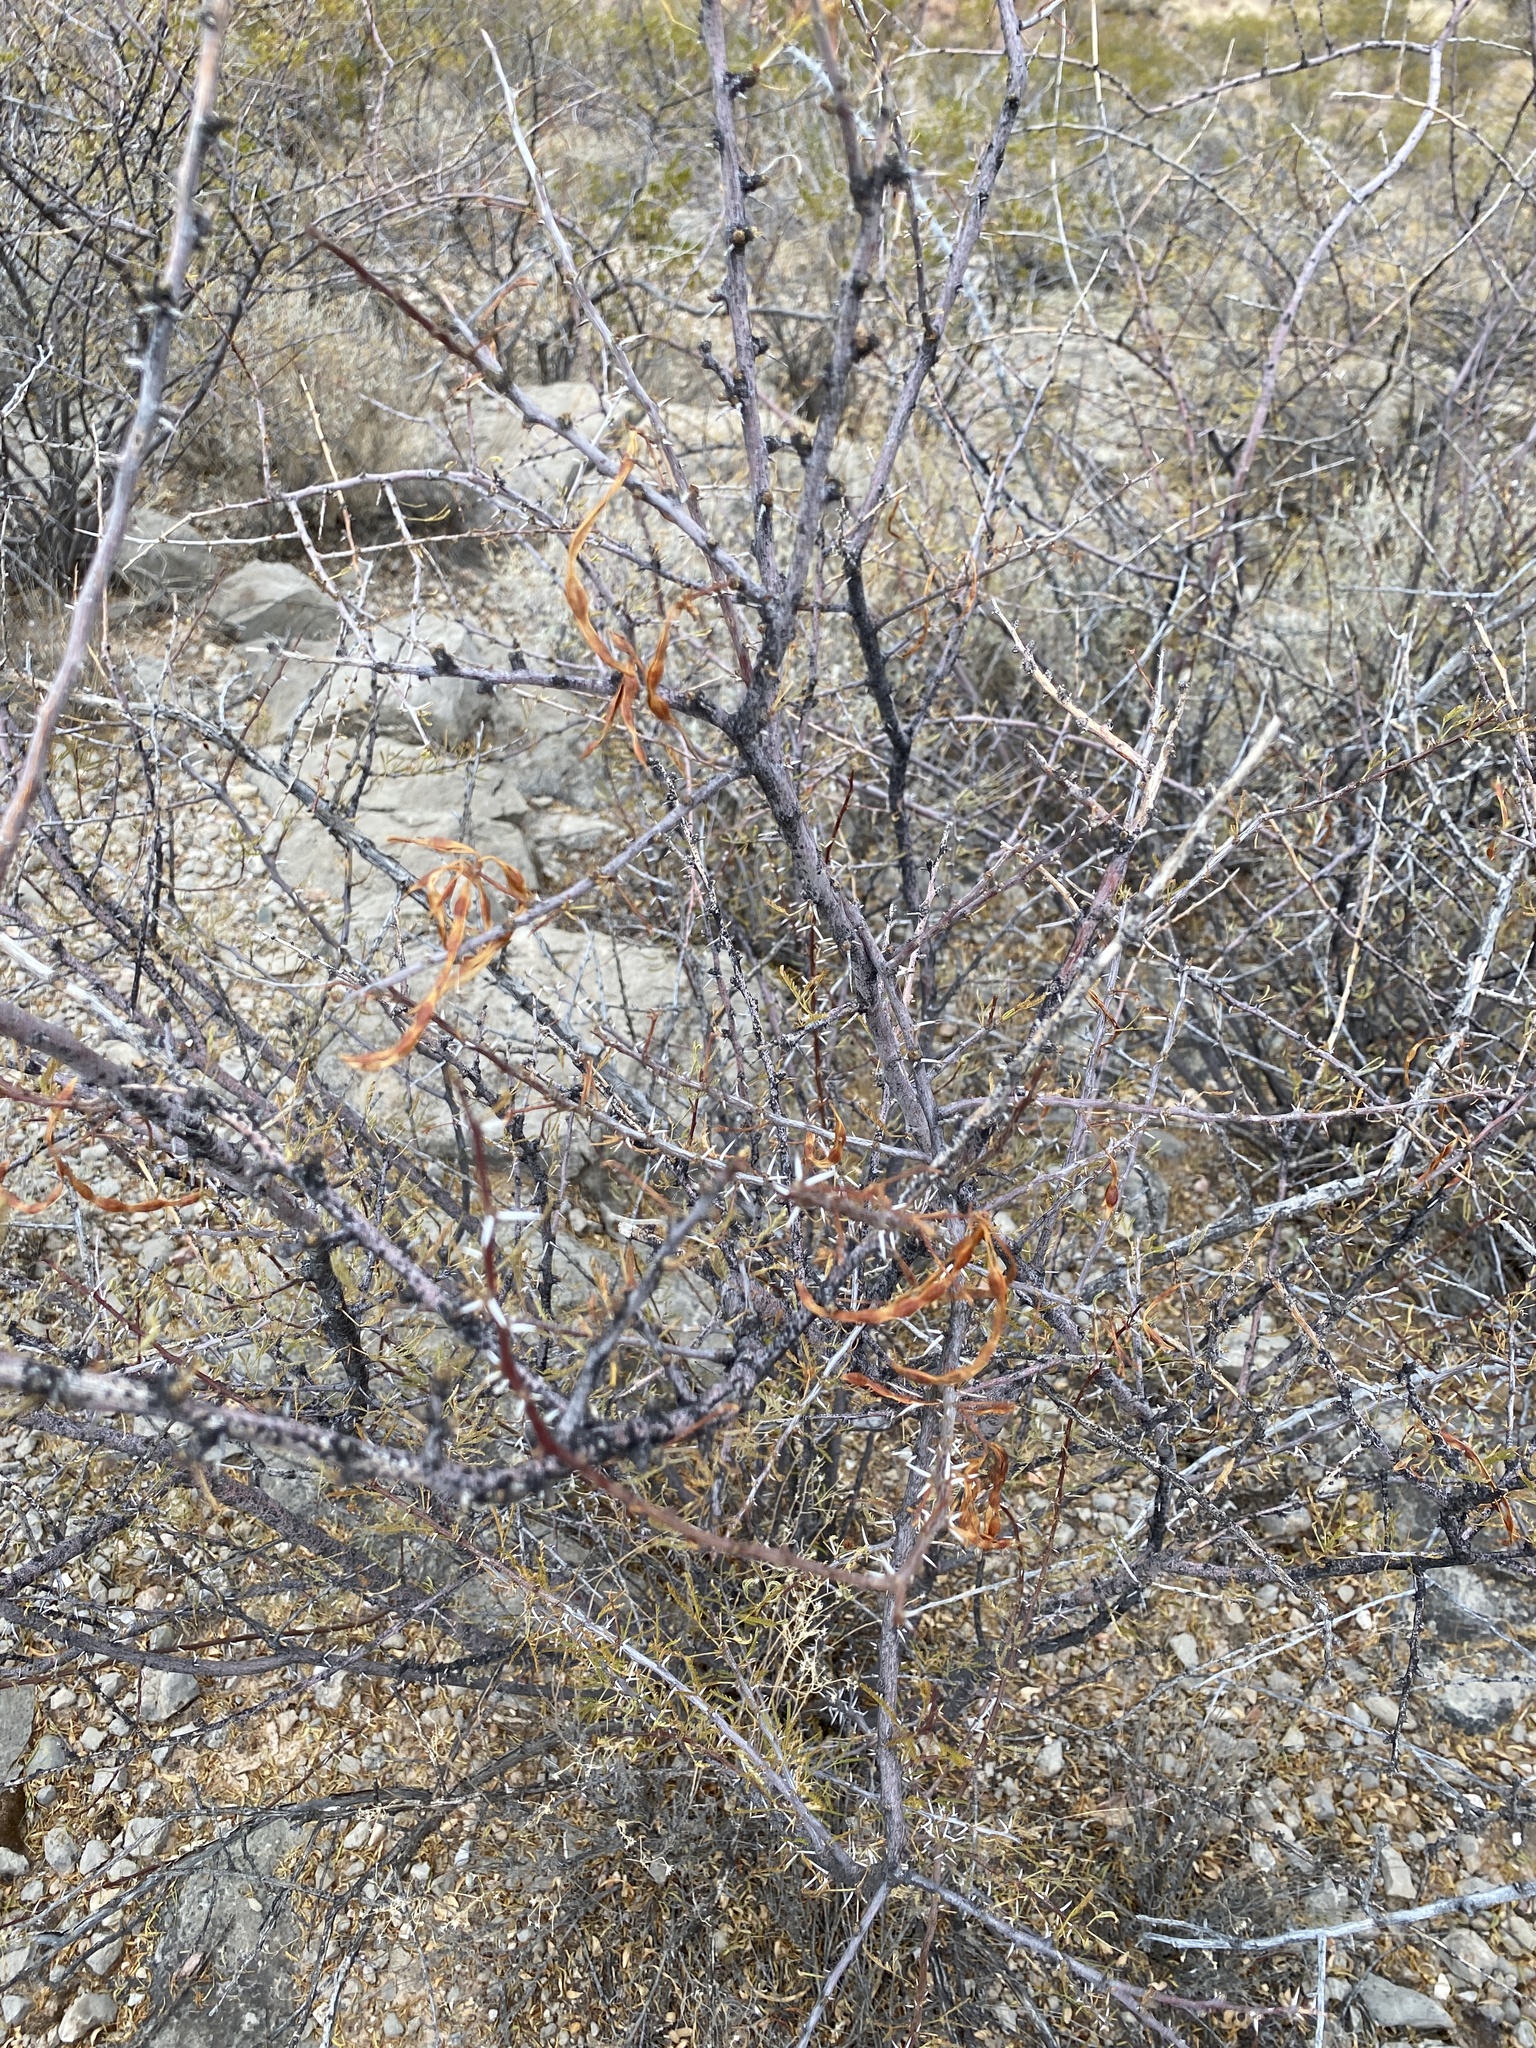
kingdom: Plantae
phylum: Tracheophyta
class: Magnoliopsida
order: Fabales
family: Fabaceae
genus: Vachellia
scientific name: Vachellia constricta
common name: Mescat acacia
